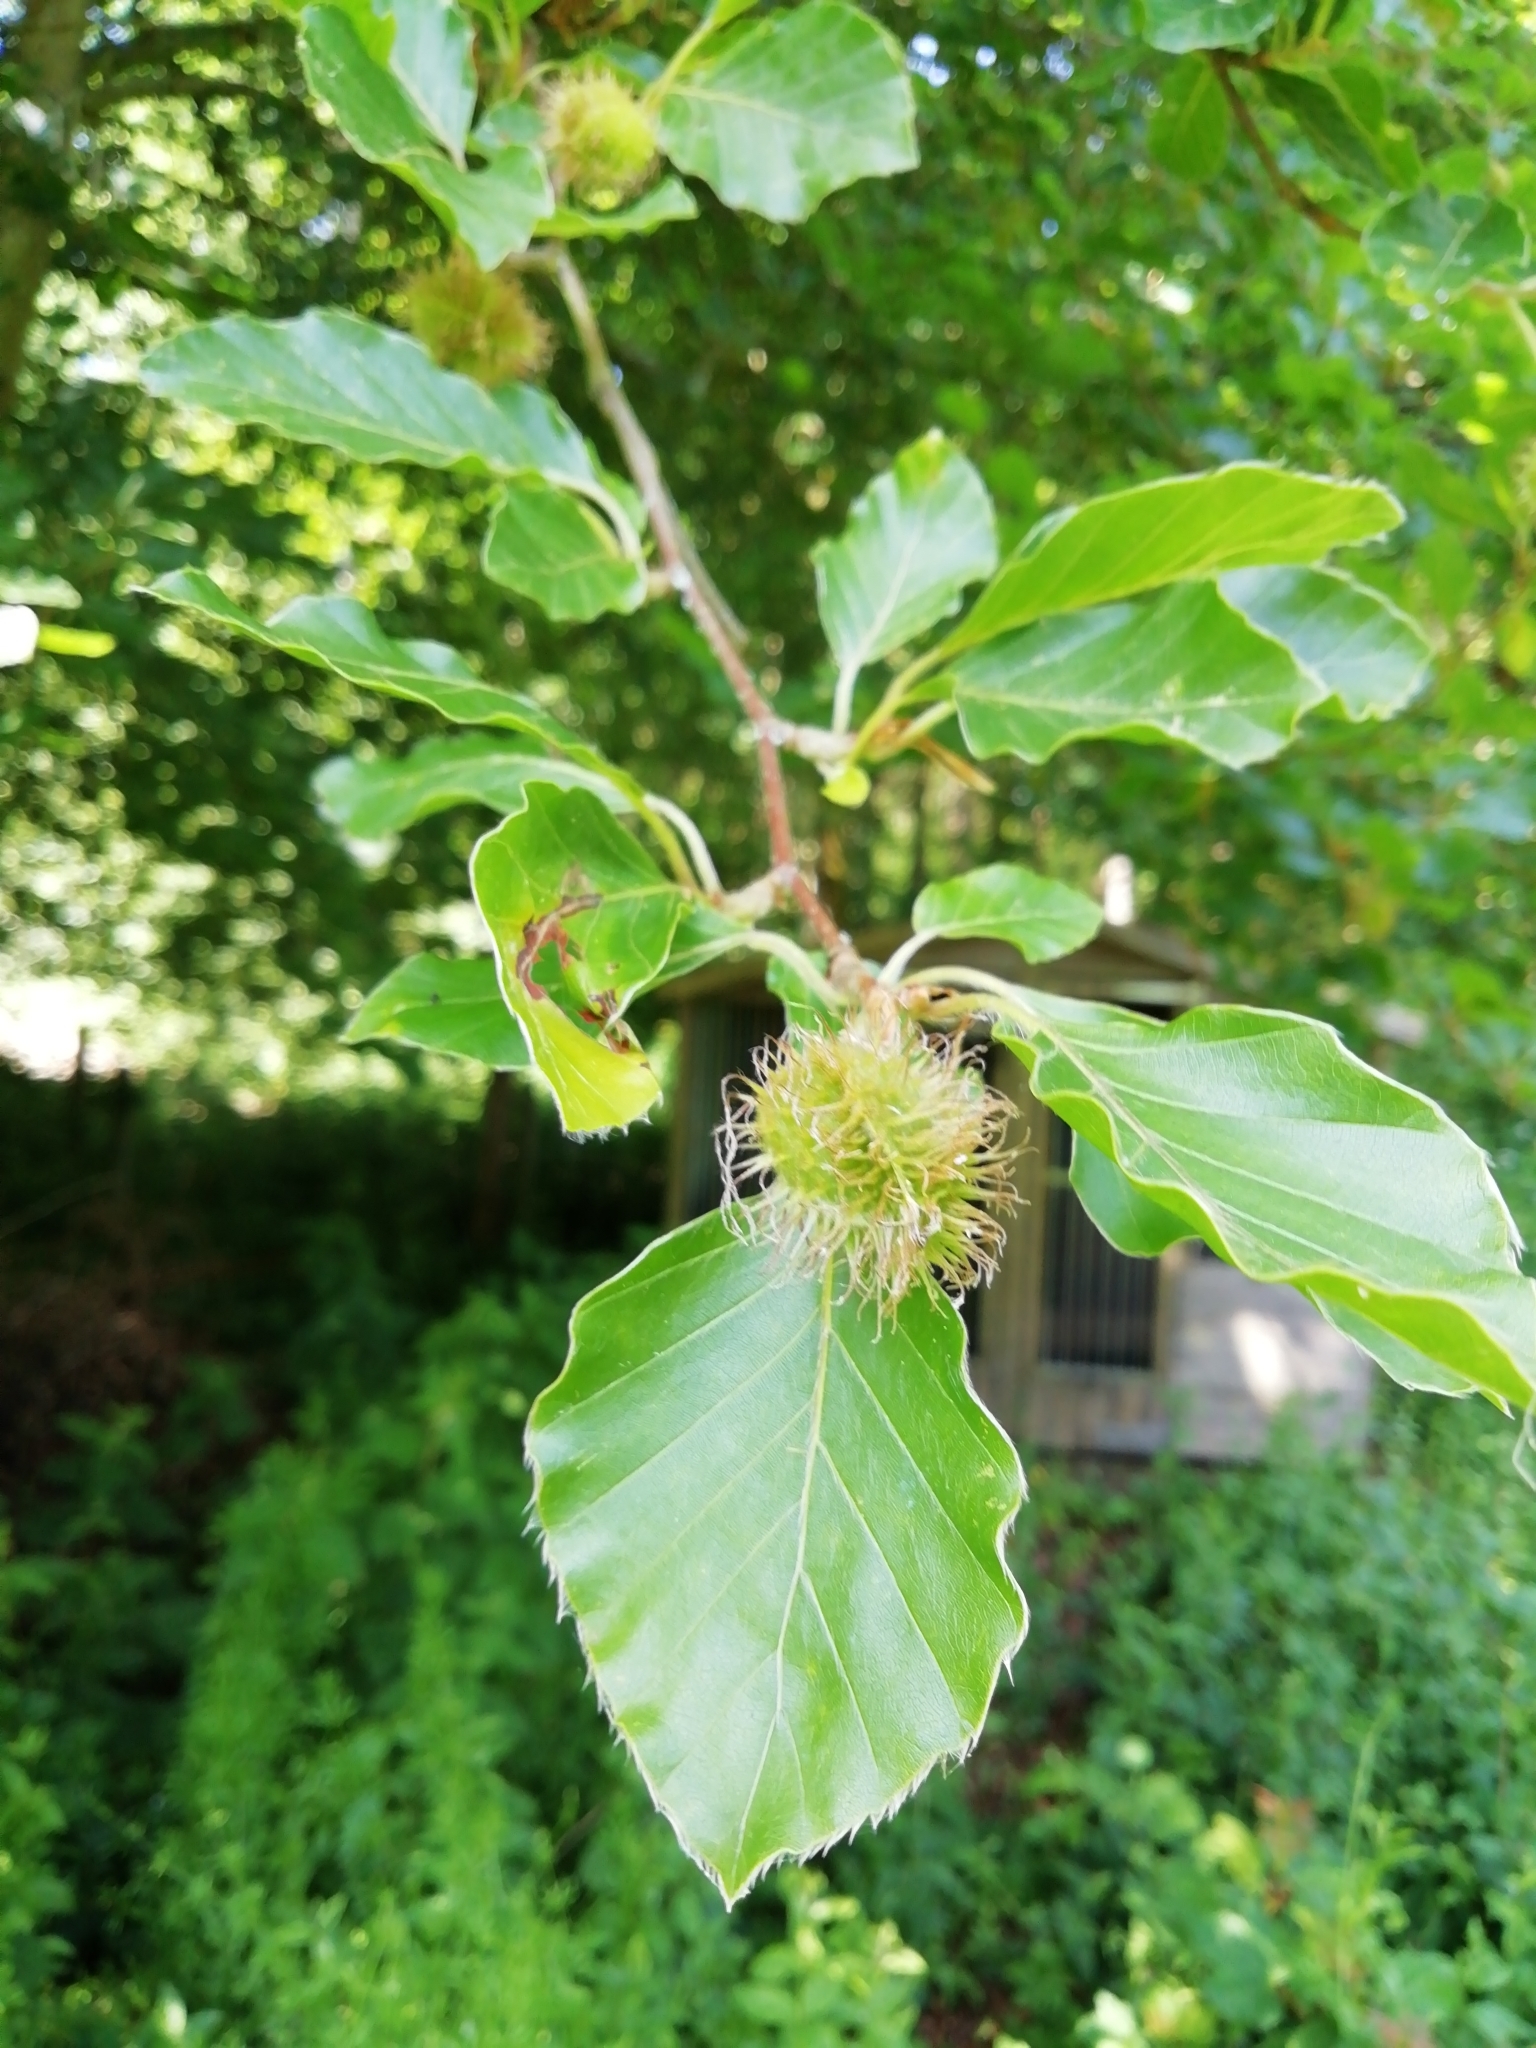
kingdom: Plantae
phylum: Tracheophyta
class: Magnoliopsida
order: Fagales
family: Fagaceae
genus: Fagus
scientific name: Fagus sylvatica
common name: Beech
